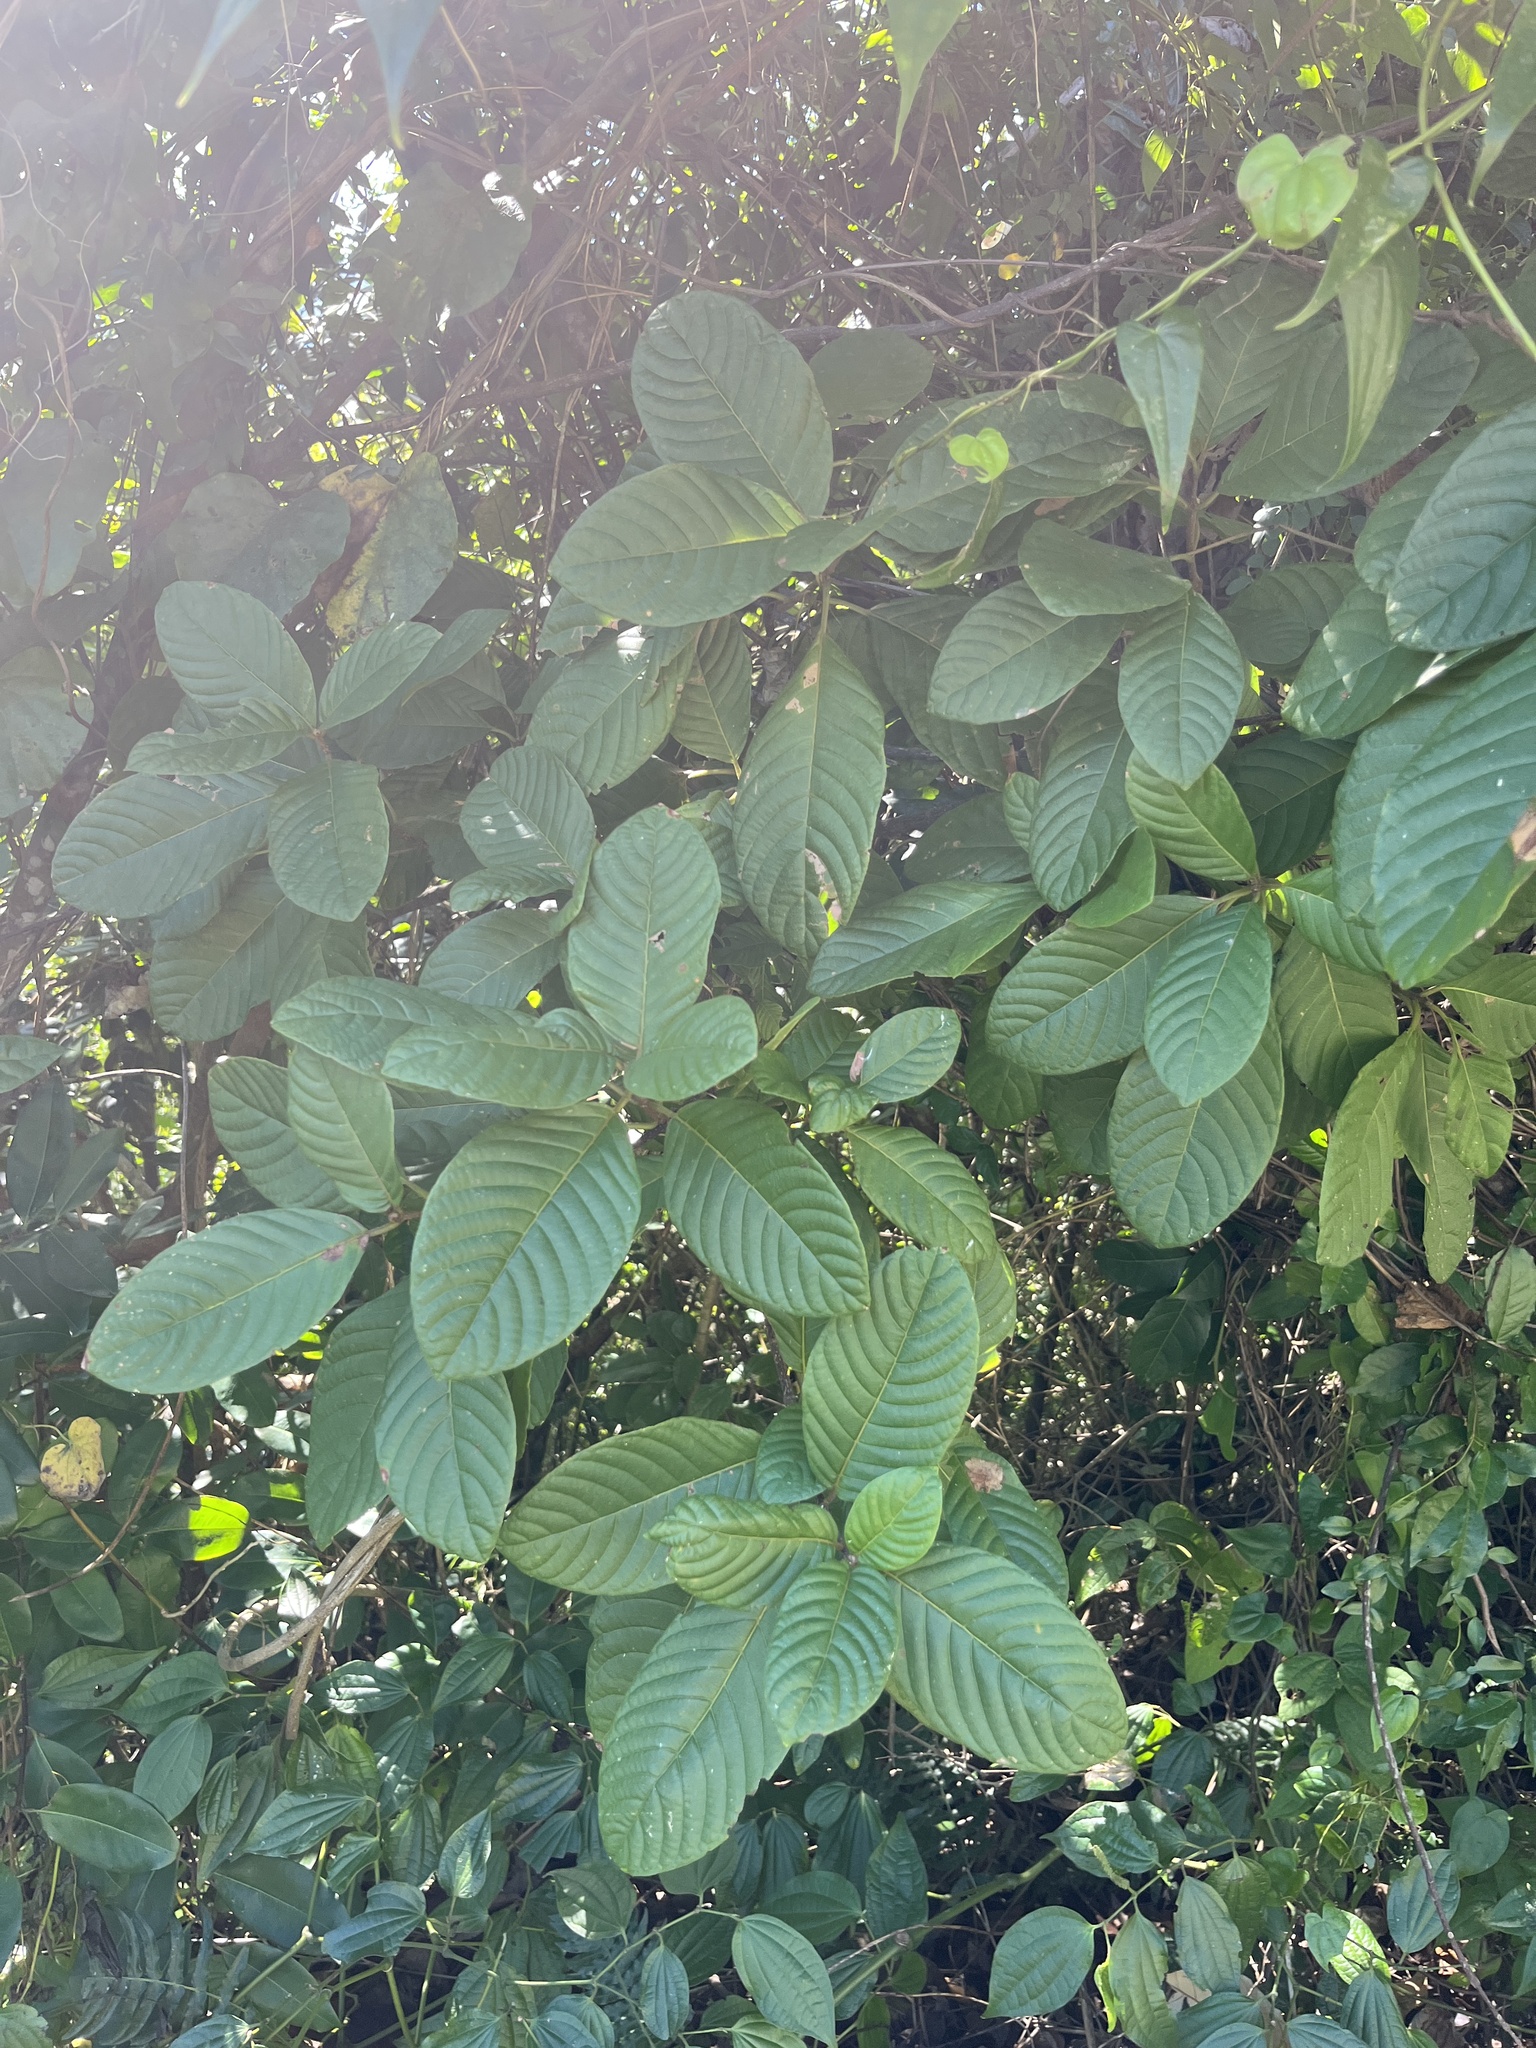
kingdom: Plantae
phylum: Tracheophyta
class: Magnoliopsida
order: Gentianales
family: Rubiaceae
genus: Guettarda
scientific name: Guettarda ovalifolia
